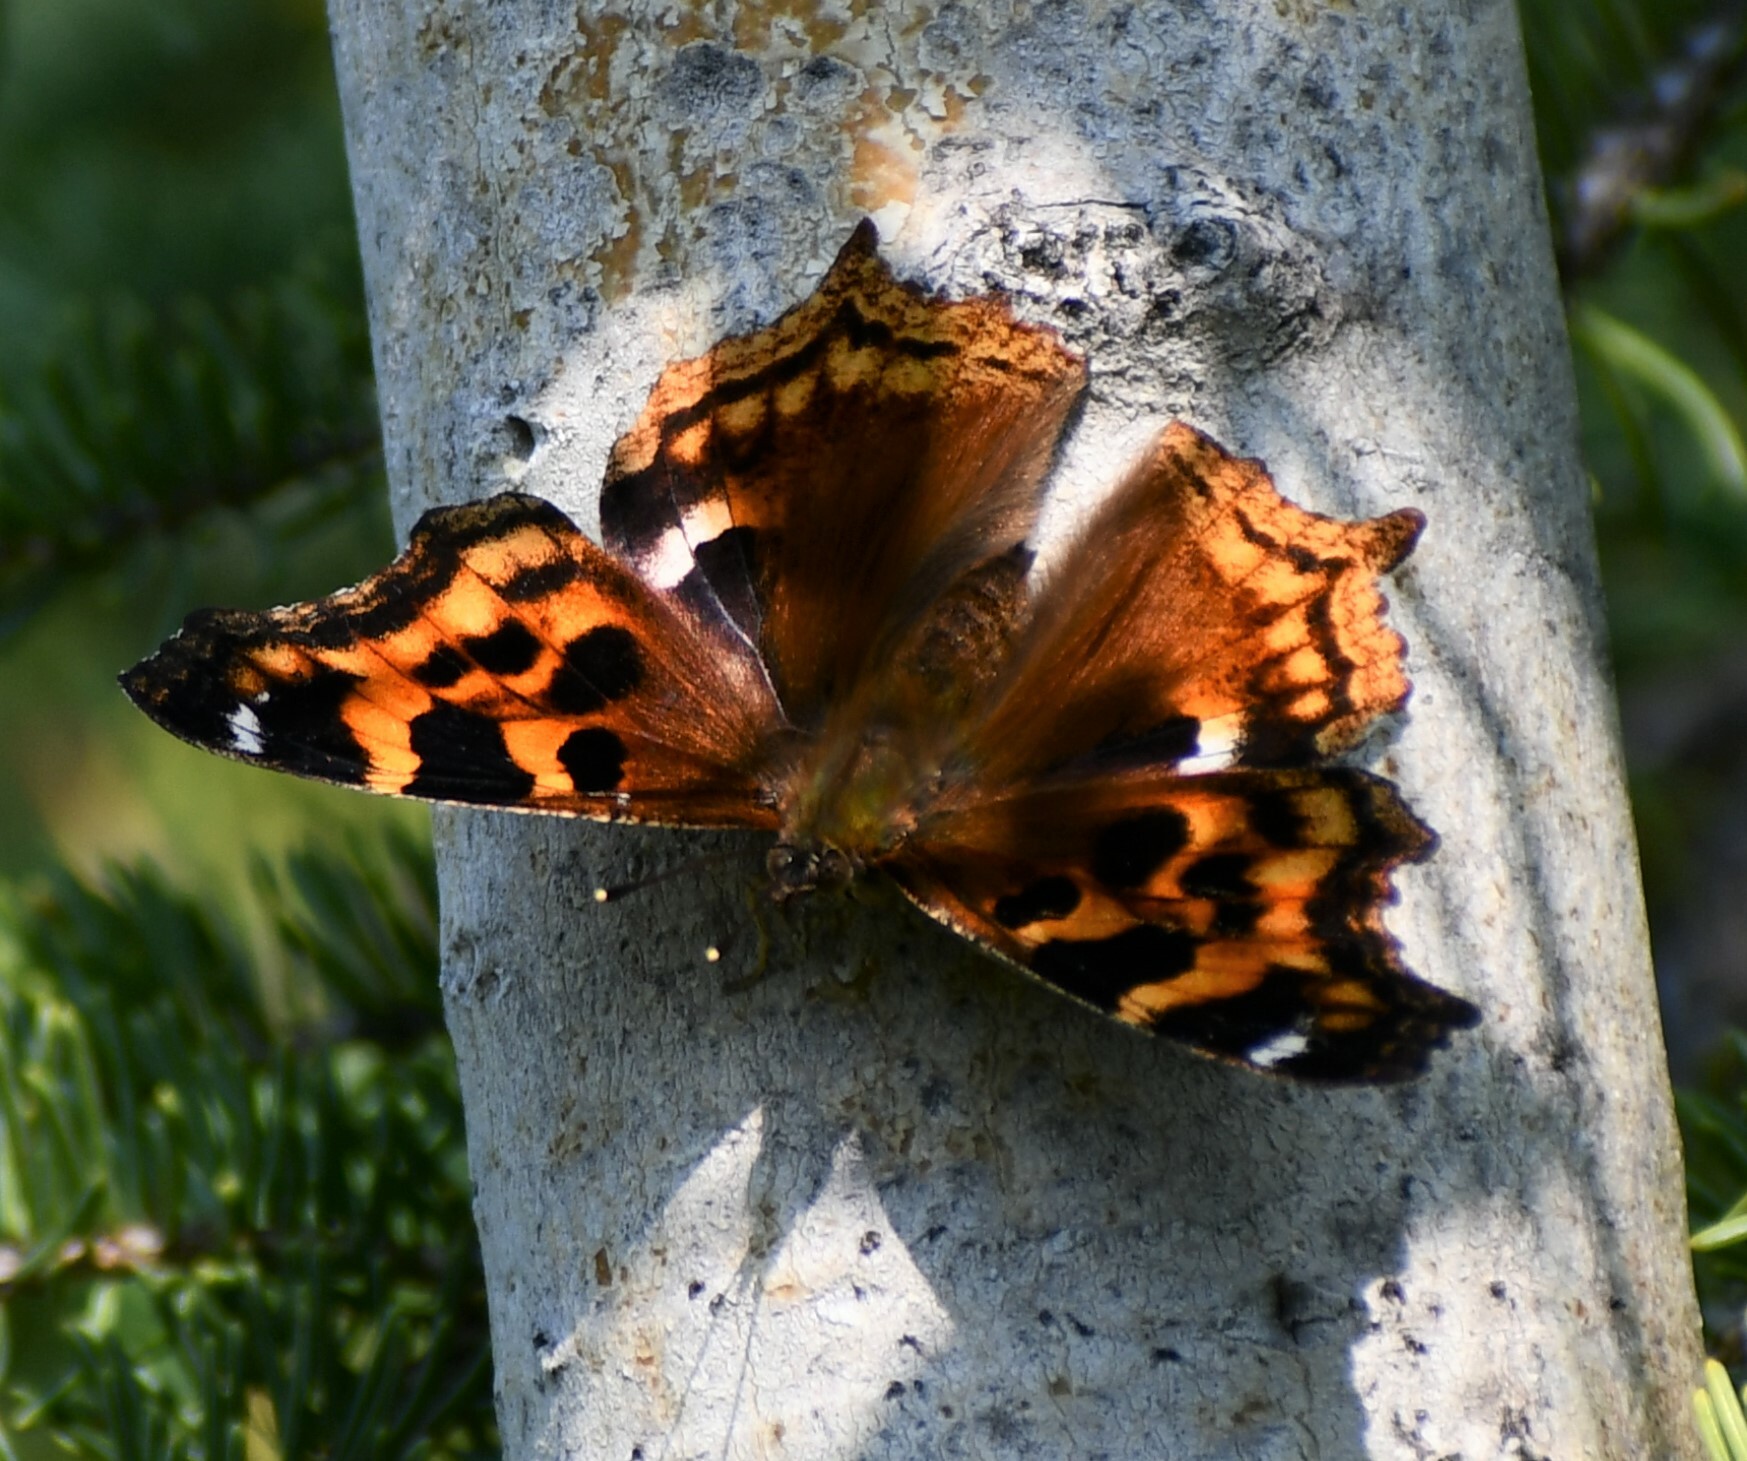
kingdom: Animalia
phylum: Arthropoda
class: Insecta
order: Lepidoptera
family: Nymphalidae
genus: Polygonia
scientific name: Polygonia vaualbum
